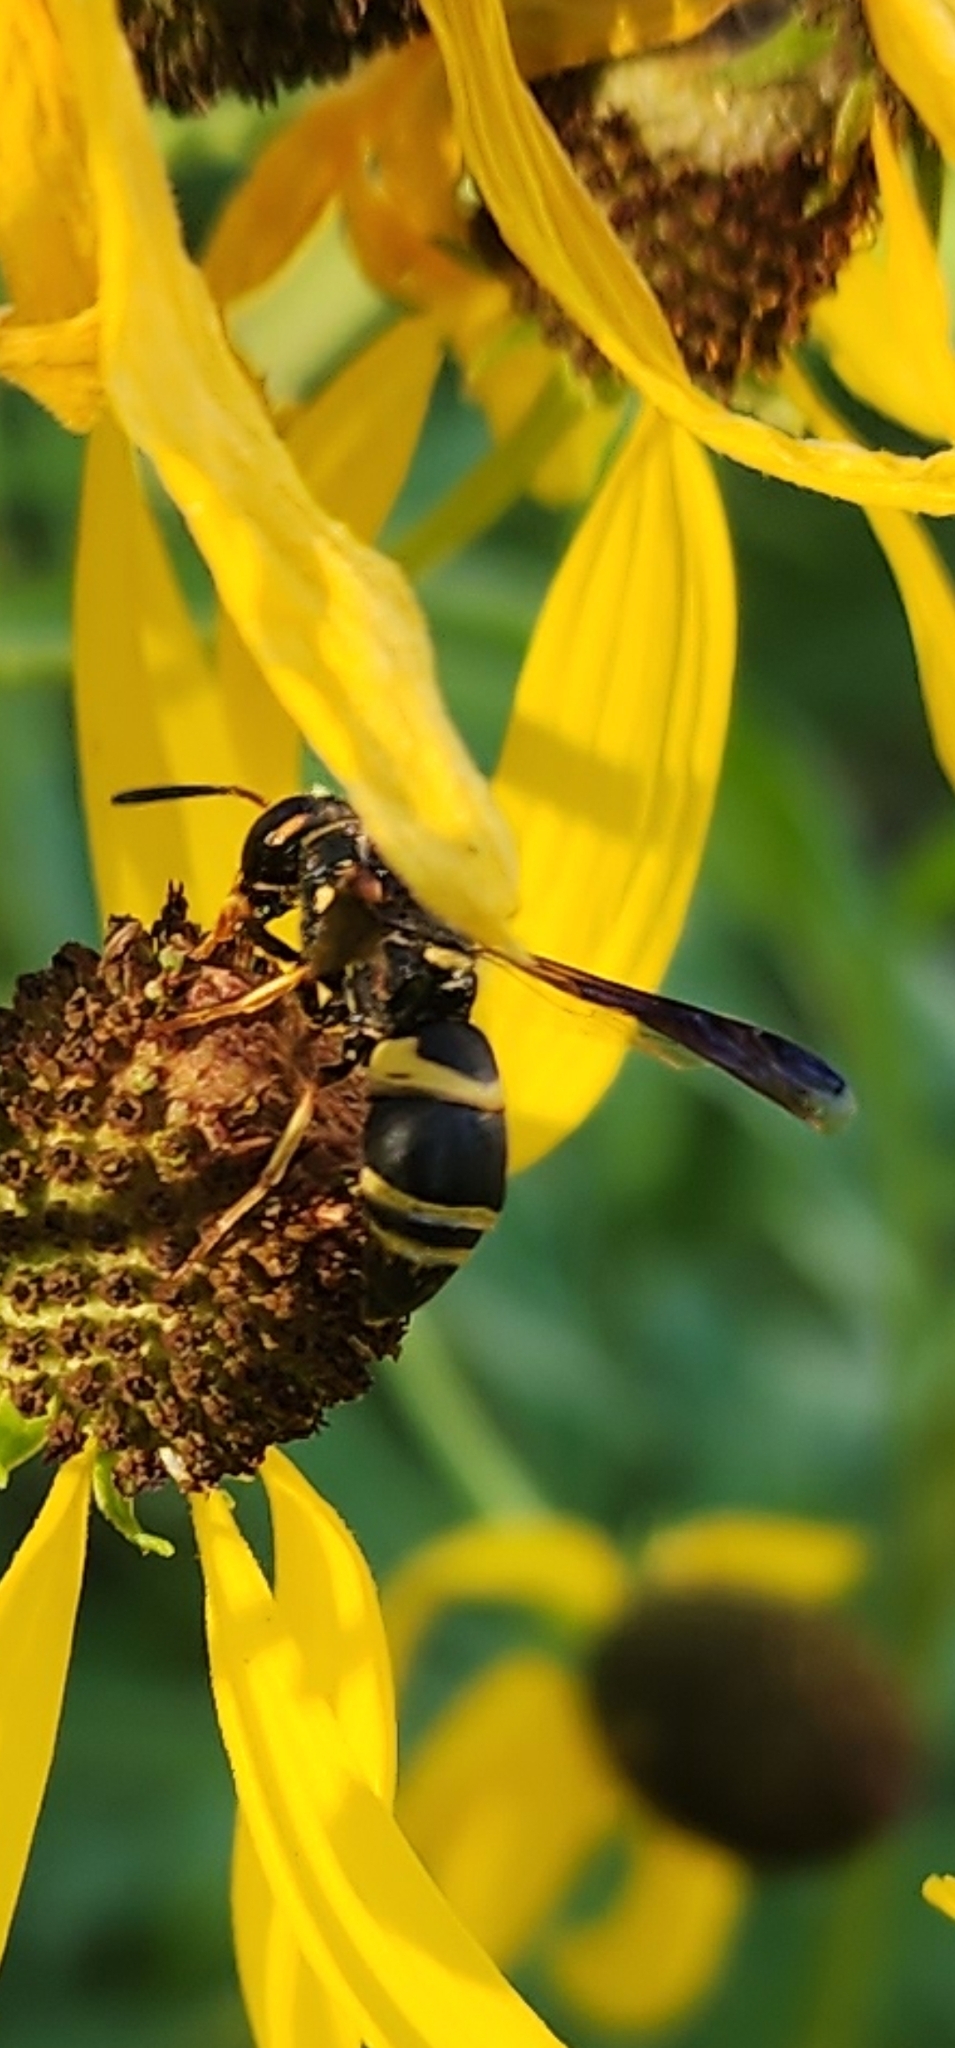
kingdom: Animalia
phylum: Arthropoda
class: Insecta
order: Hymenoptera
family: Eumenidae
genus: Euodynerus
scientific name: Euodynerus hidalgo
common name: Wasp
